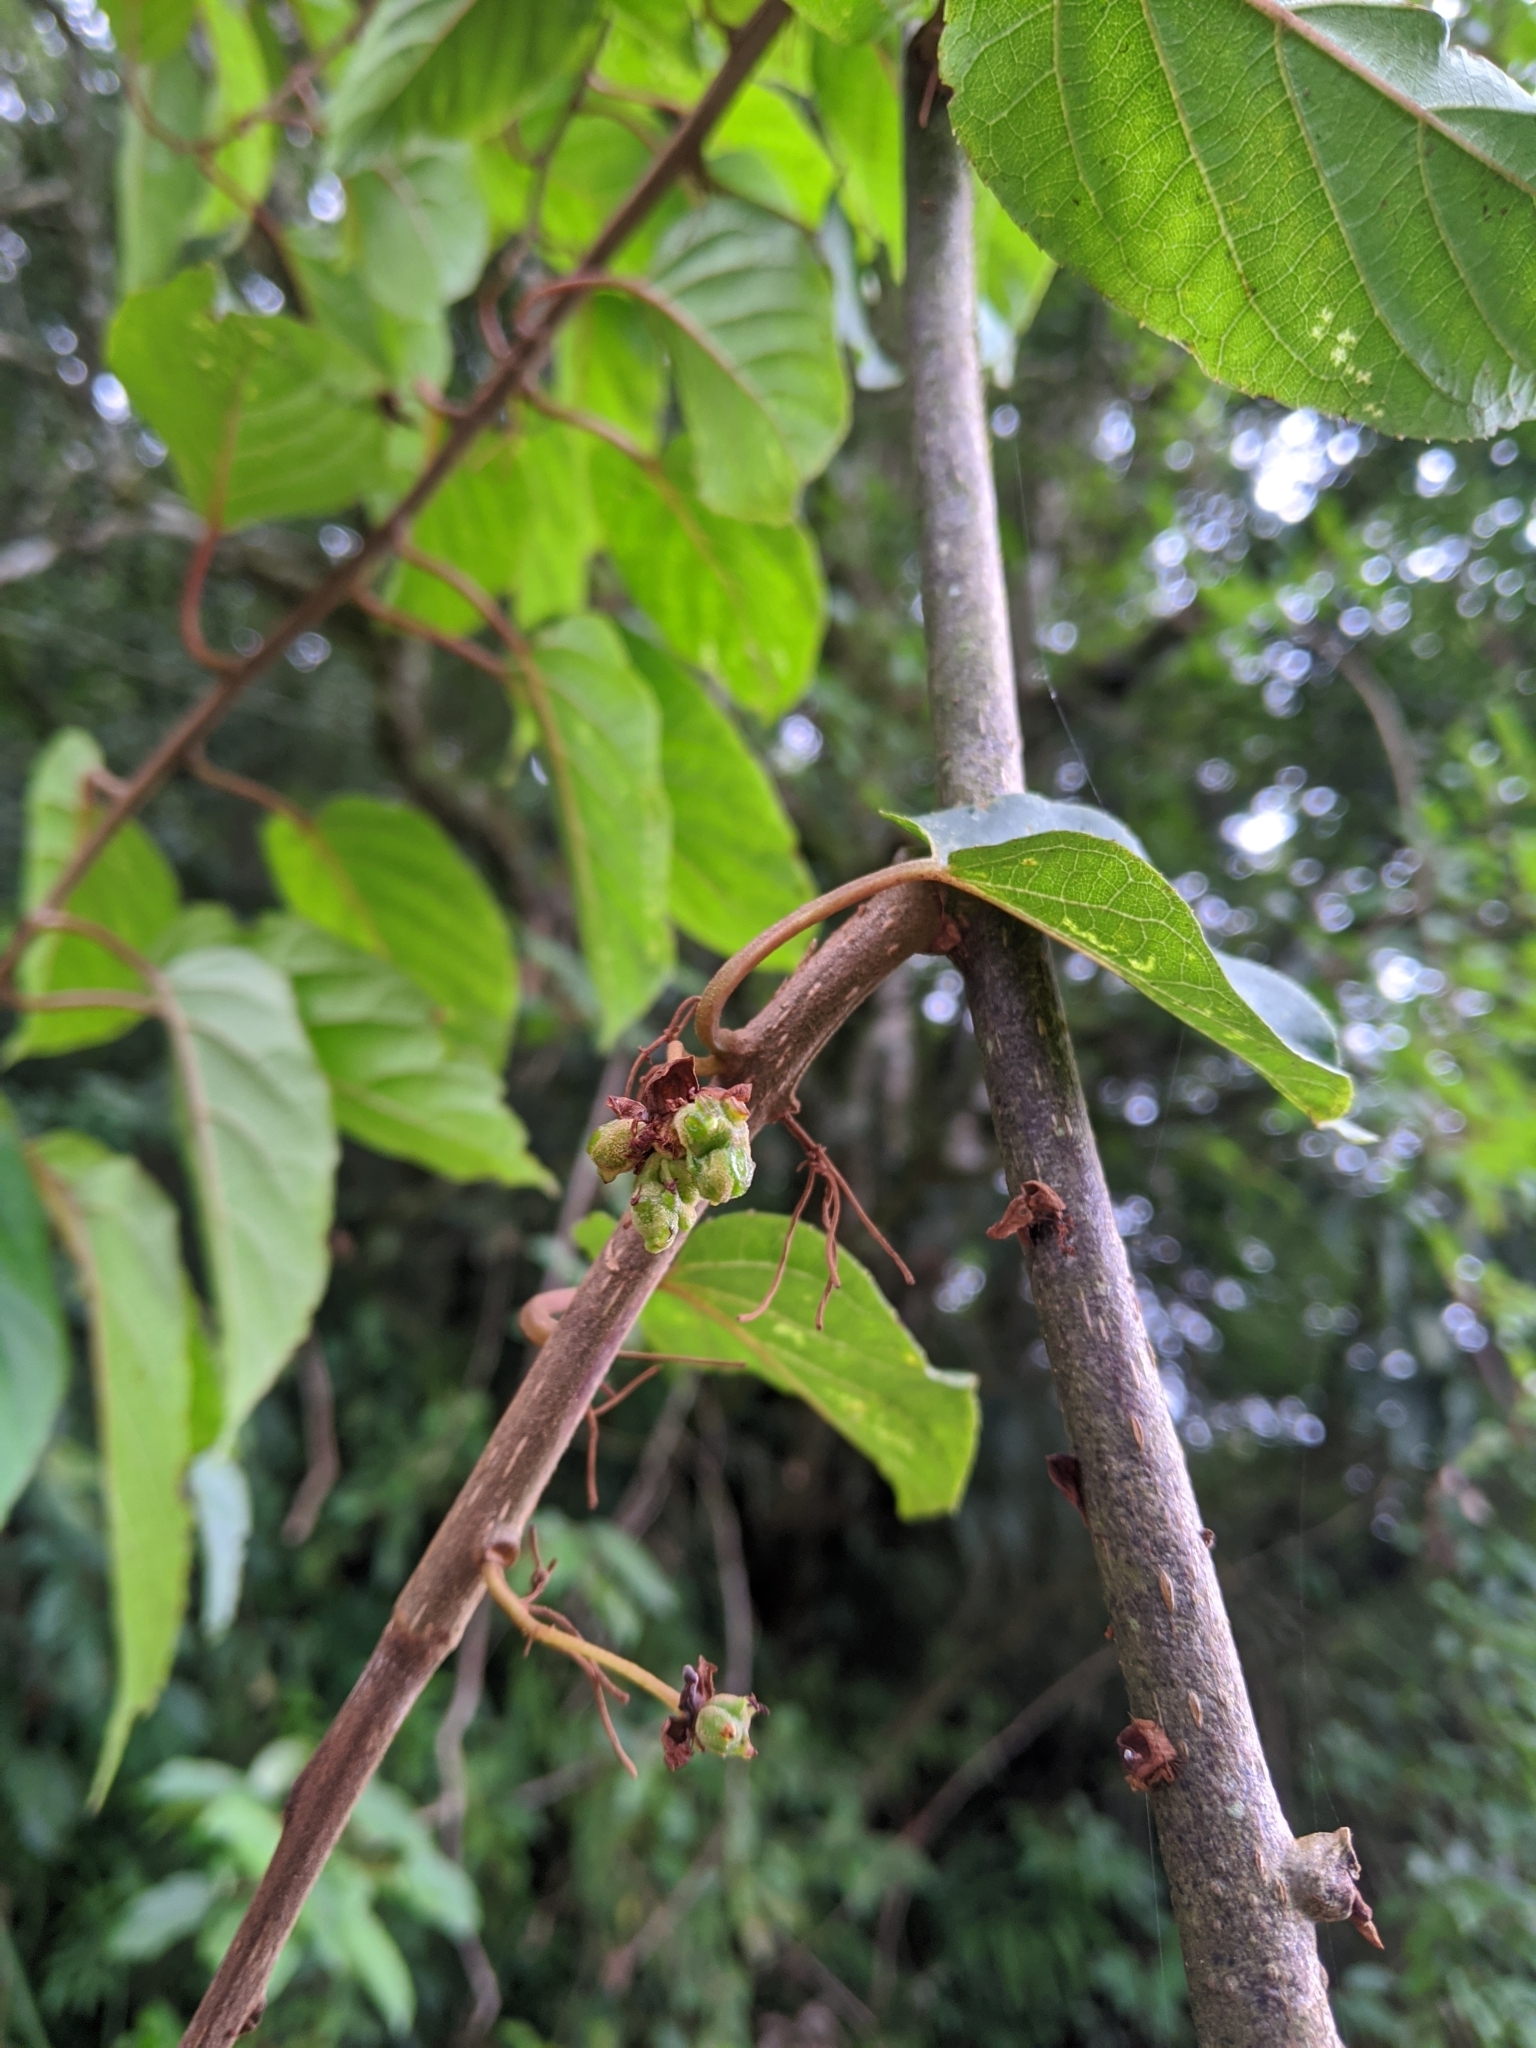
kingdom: Animalia
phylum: Arthropoda
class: Insecta
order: Diptera
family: Cecidomyiidae
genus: Pseudasphondylia
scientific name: Pseudasphondylia
